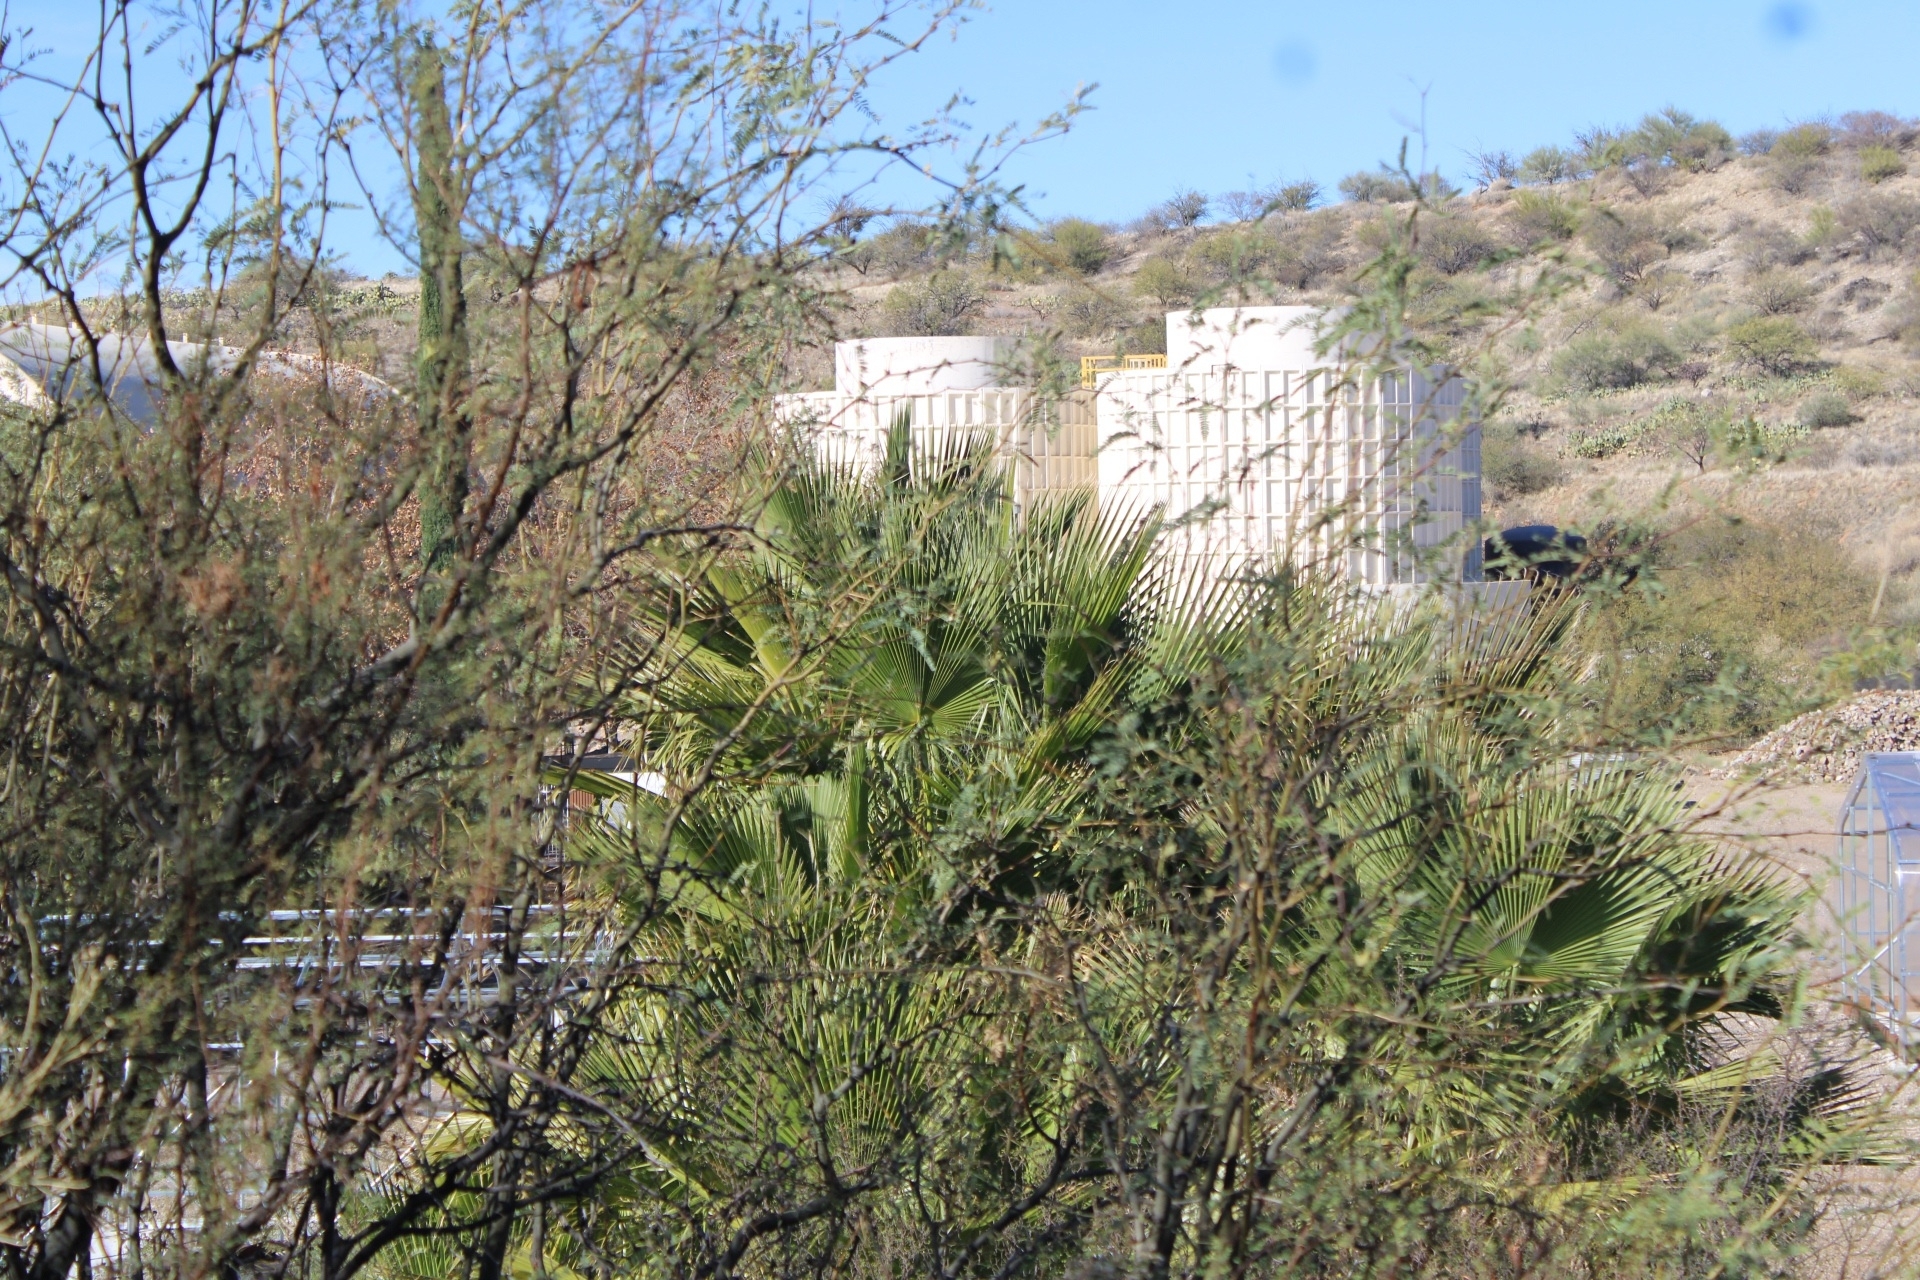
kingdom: Plantae
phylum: Tracheophyta
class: Liliopsida
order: Arecales
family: Arecaceae
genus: Washingtonia
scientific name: Washingtonia robusta
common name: Mexican fan palm
